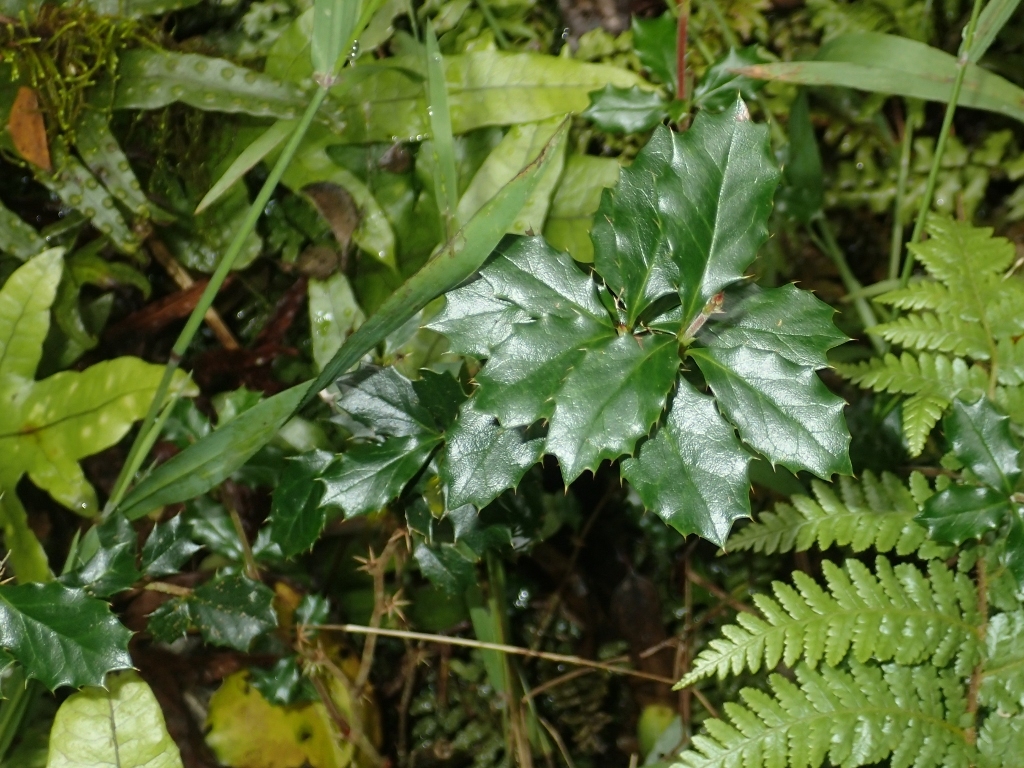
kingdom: Plantae
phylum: Tracheophyta
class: Magnoliopsida
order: Ranunculales
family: Berberidaceae
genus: Berberis
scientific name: Berberis darwinii
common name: Darwin's barberry
